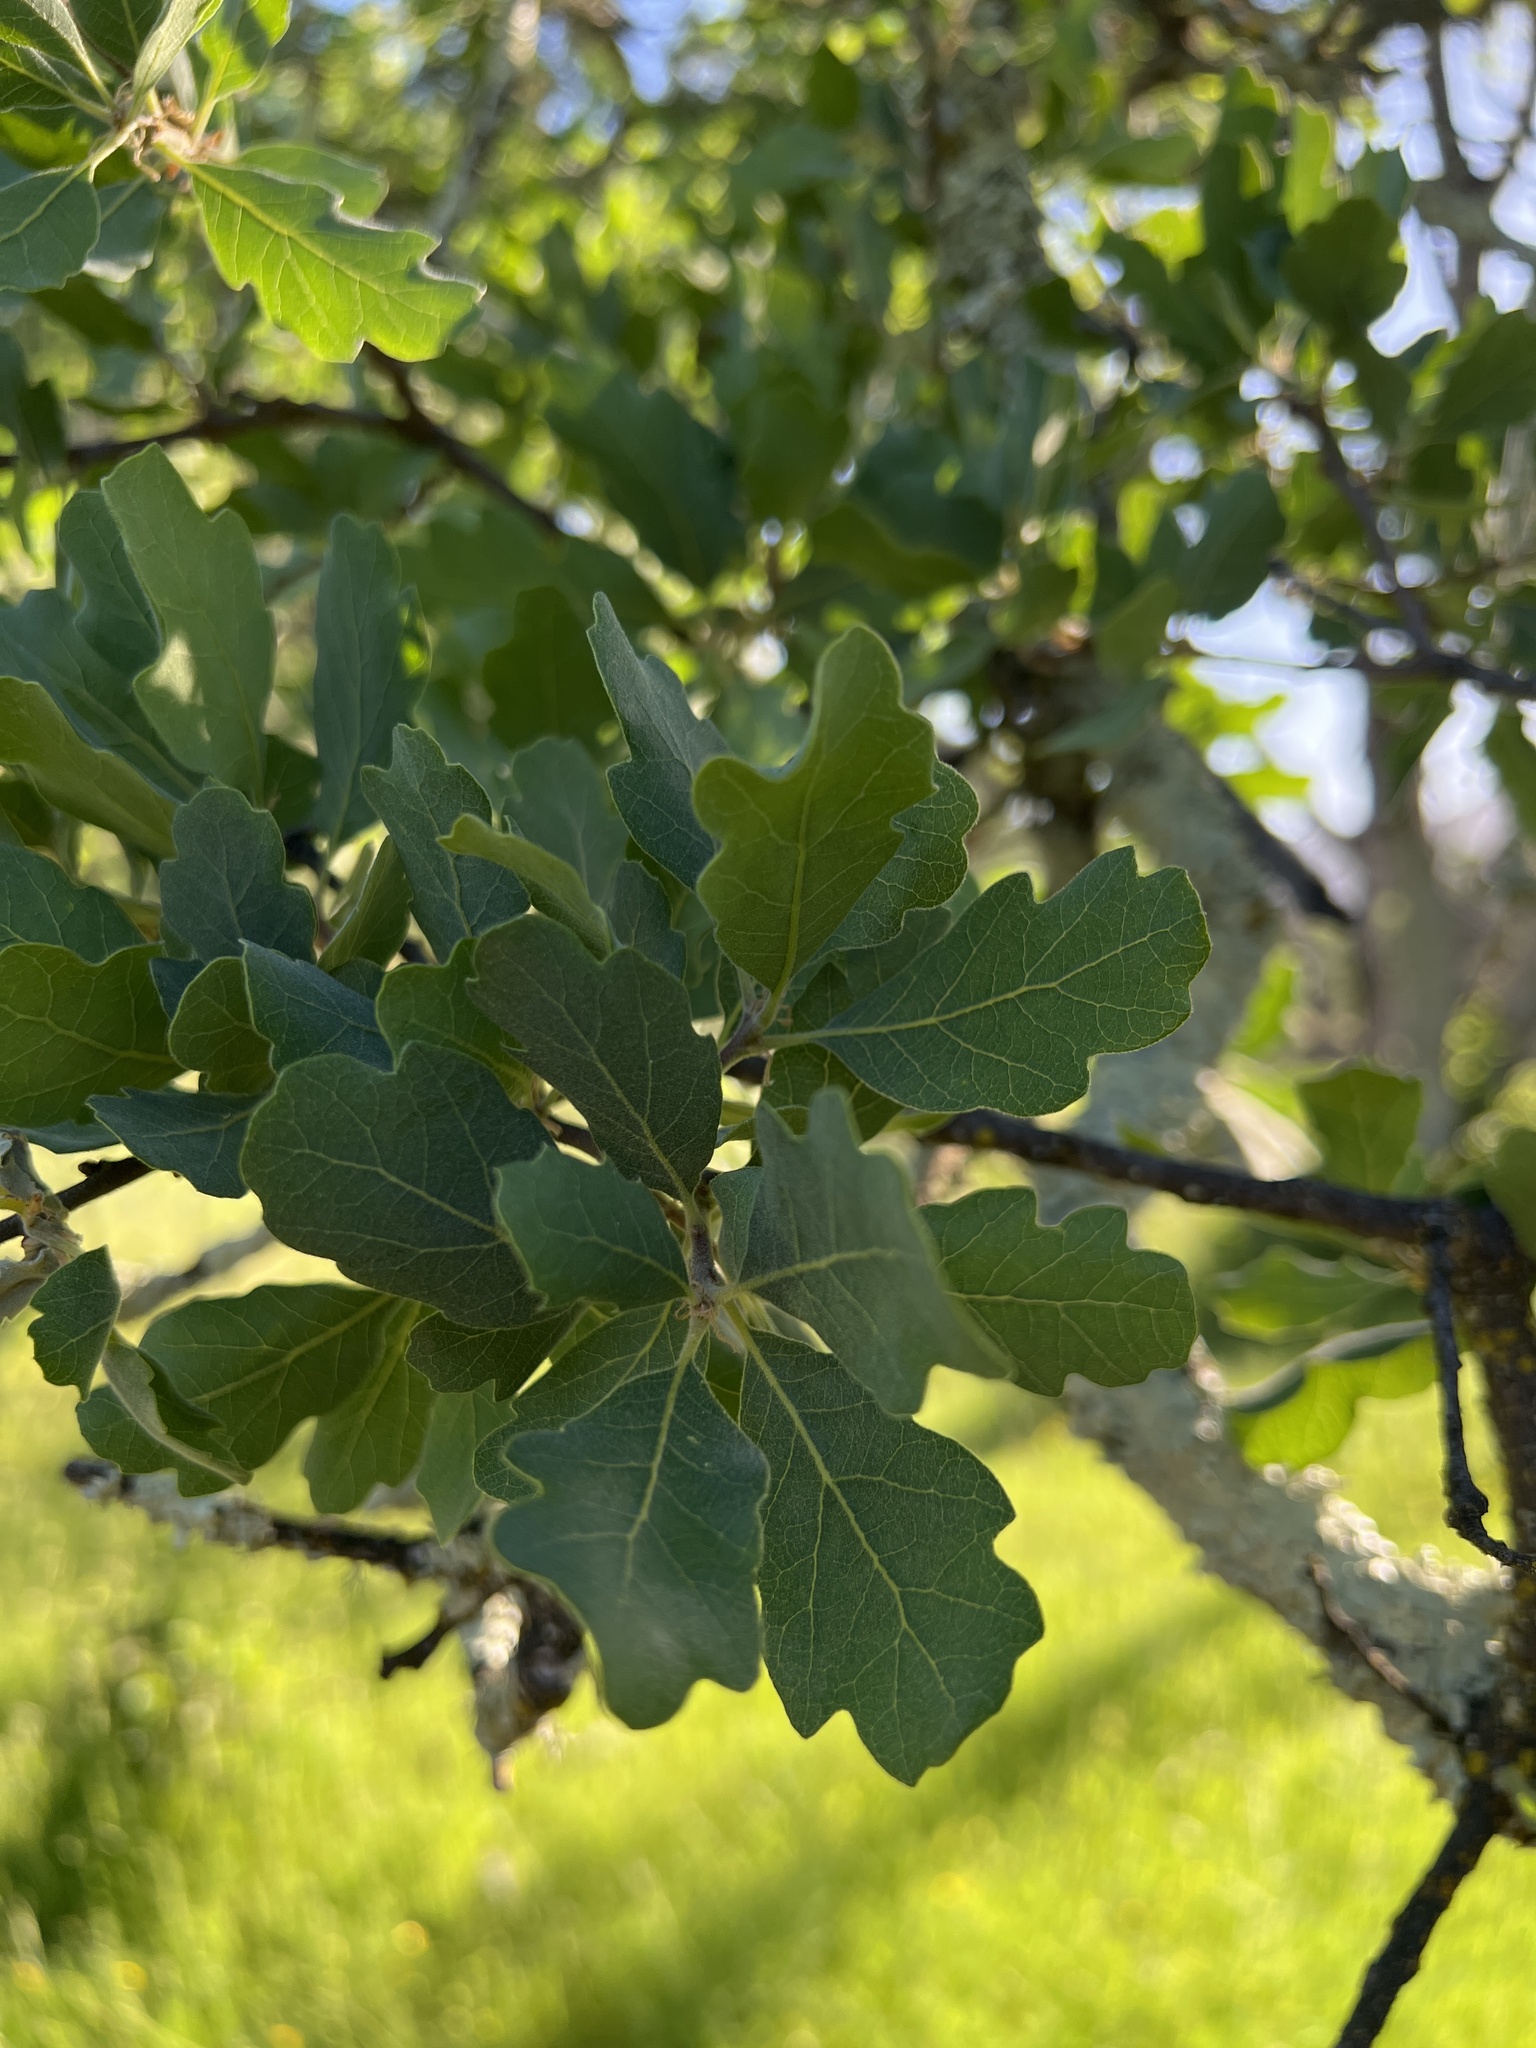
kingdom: Plantae
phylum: Tracheophyta
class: Magnoliopsida
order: Fagales
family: Fagaceae
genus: Quercus
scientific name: Quercus douglasii
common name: Blue oak
